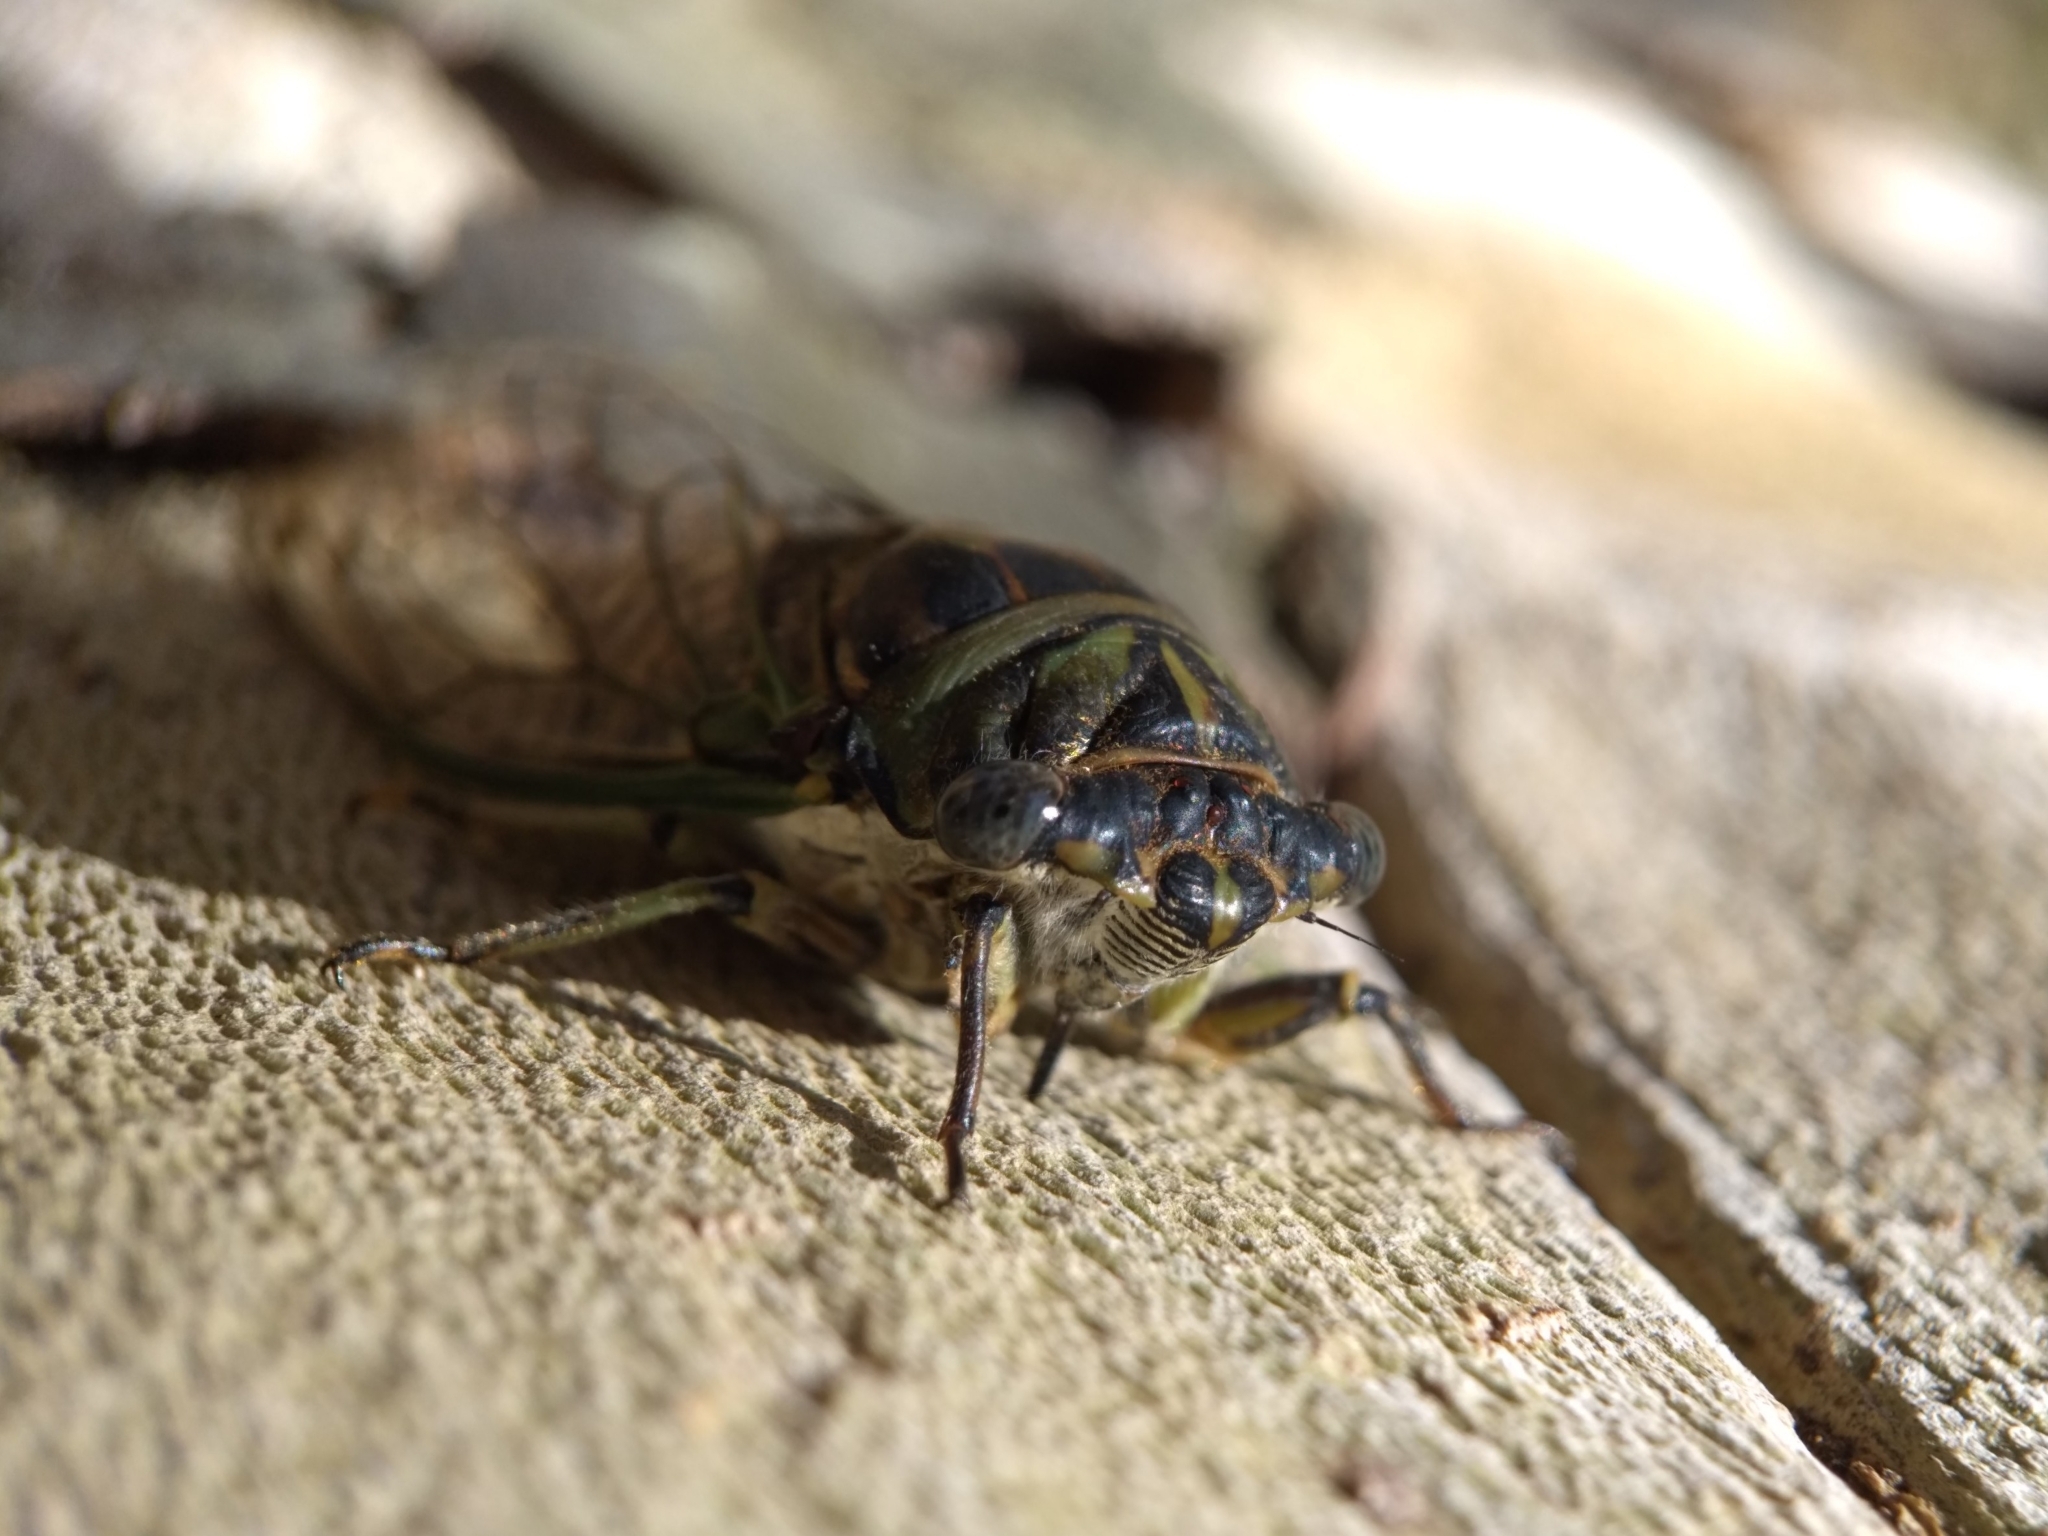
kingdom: Animalia
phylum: Arthropoda
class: Insecta
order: Hemiptera
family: Cicadidae
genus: Neotibicen
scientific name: Neotibicen canicularis
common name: God-day cicada
